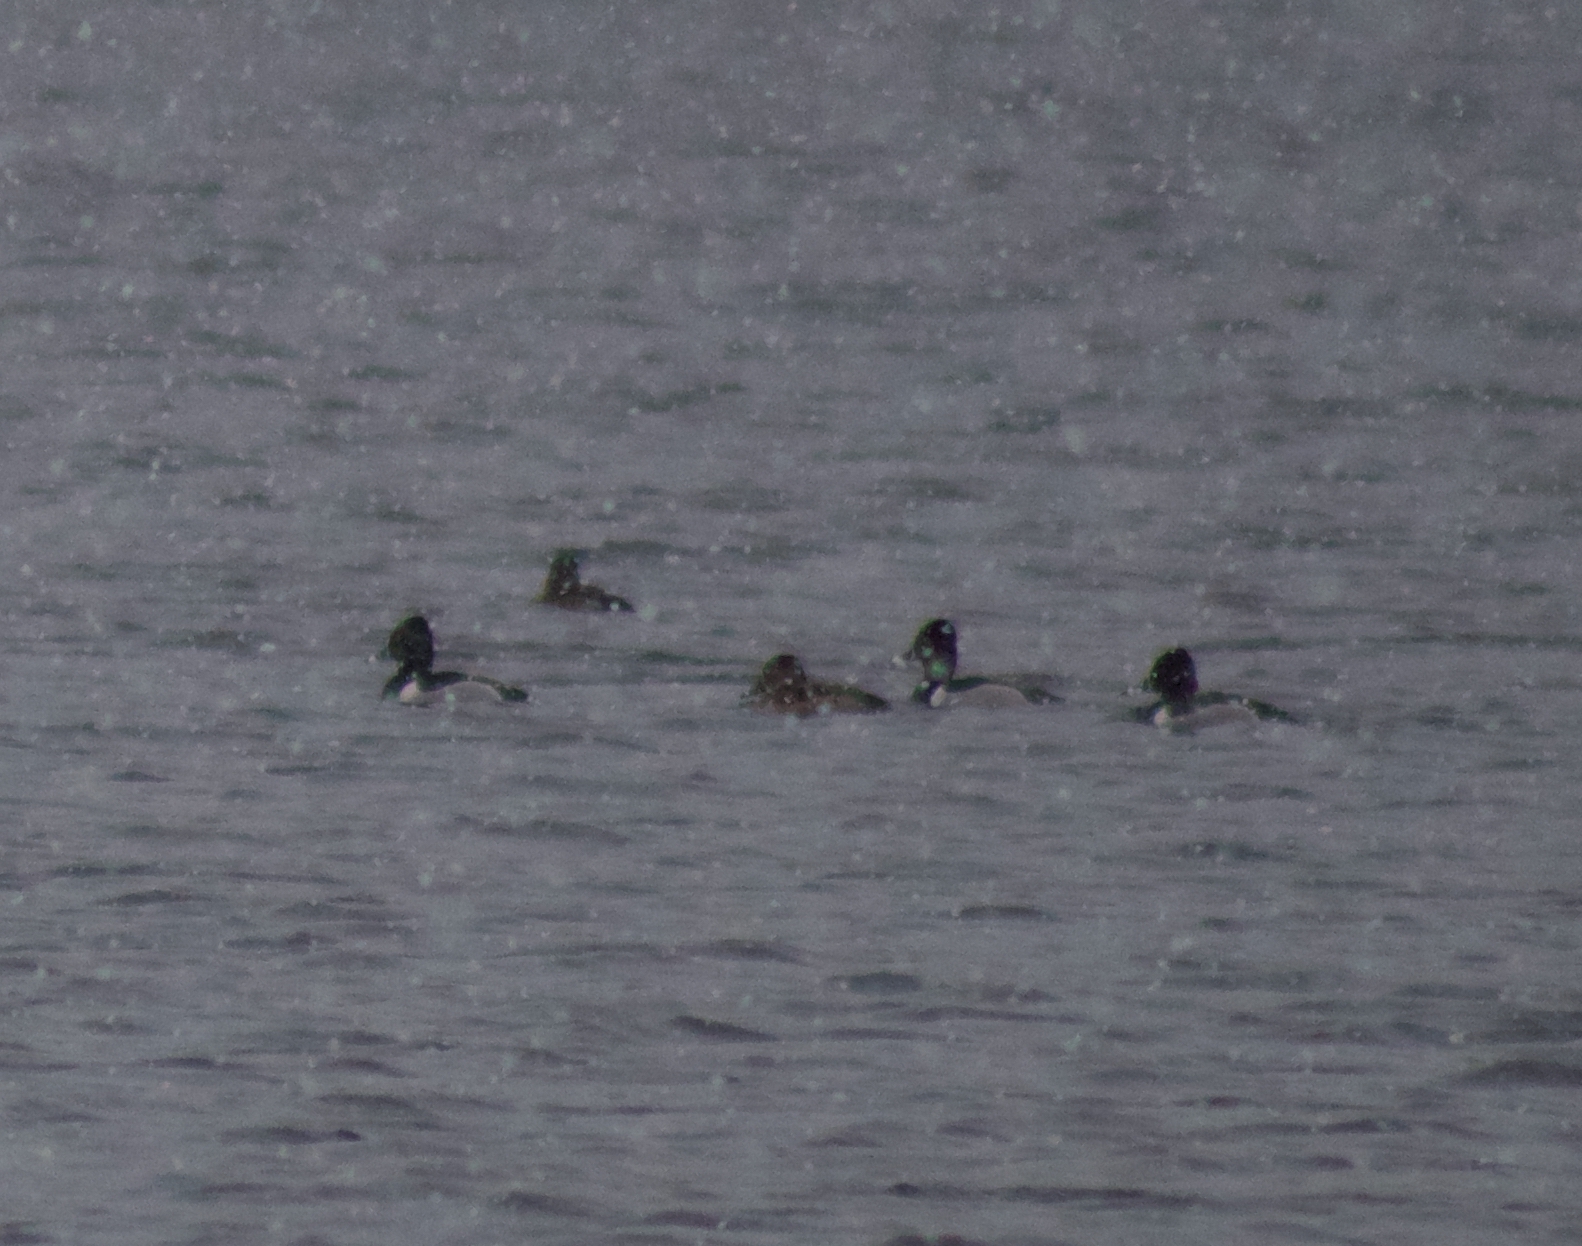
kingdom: Animalia
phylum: Chordata
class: Aves
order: Anseriformes
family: Anatidae
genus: Aythya
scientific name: Aythya collaris
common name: Ring-necked duck
